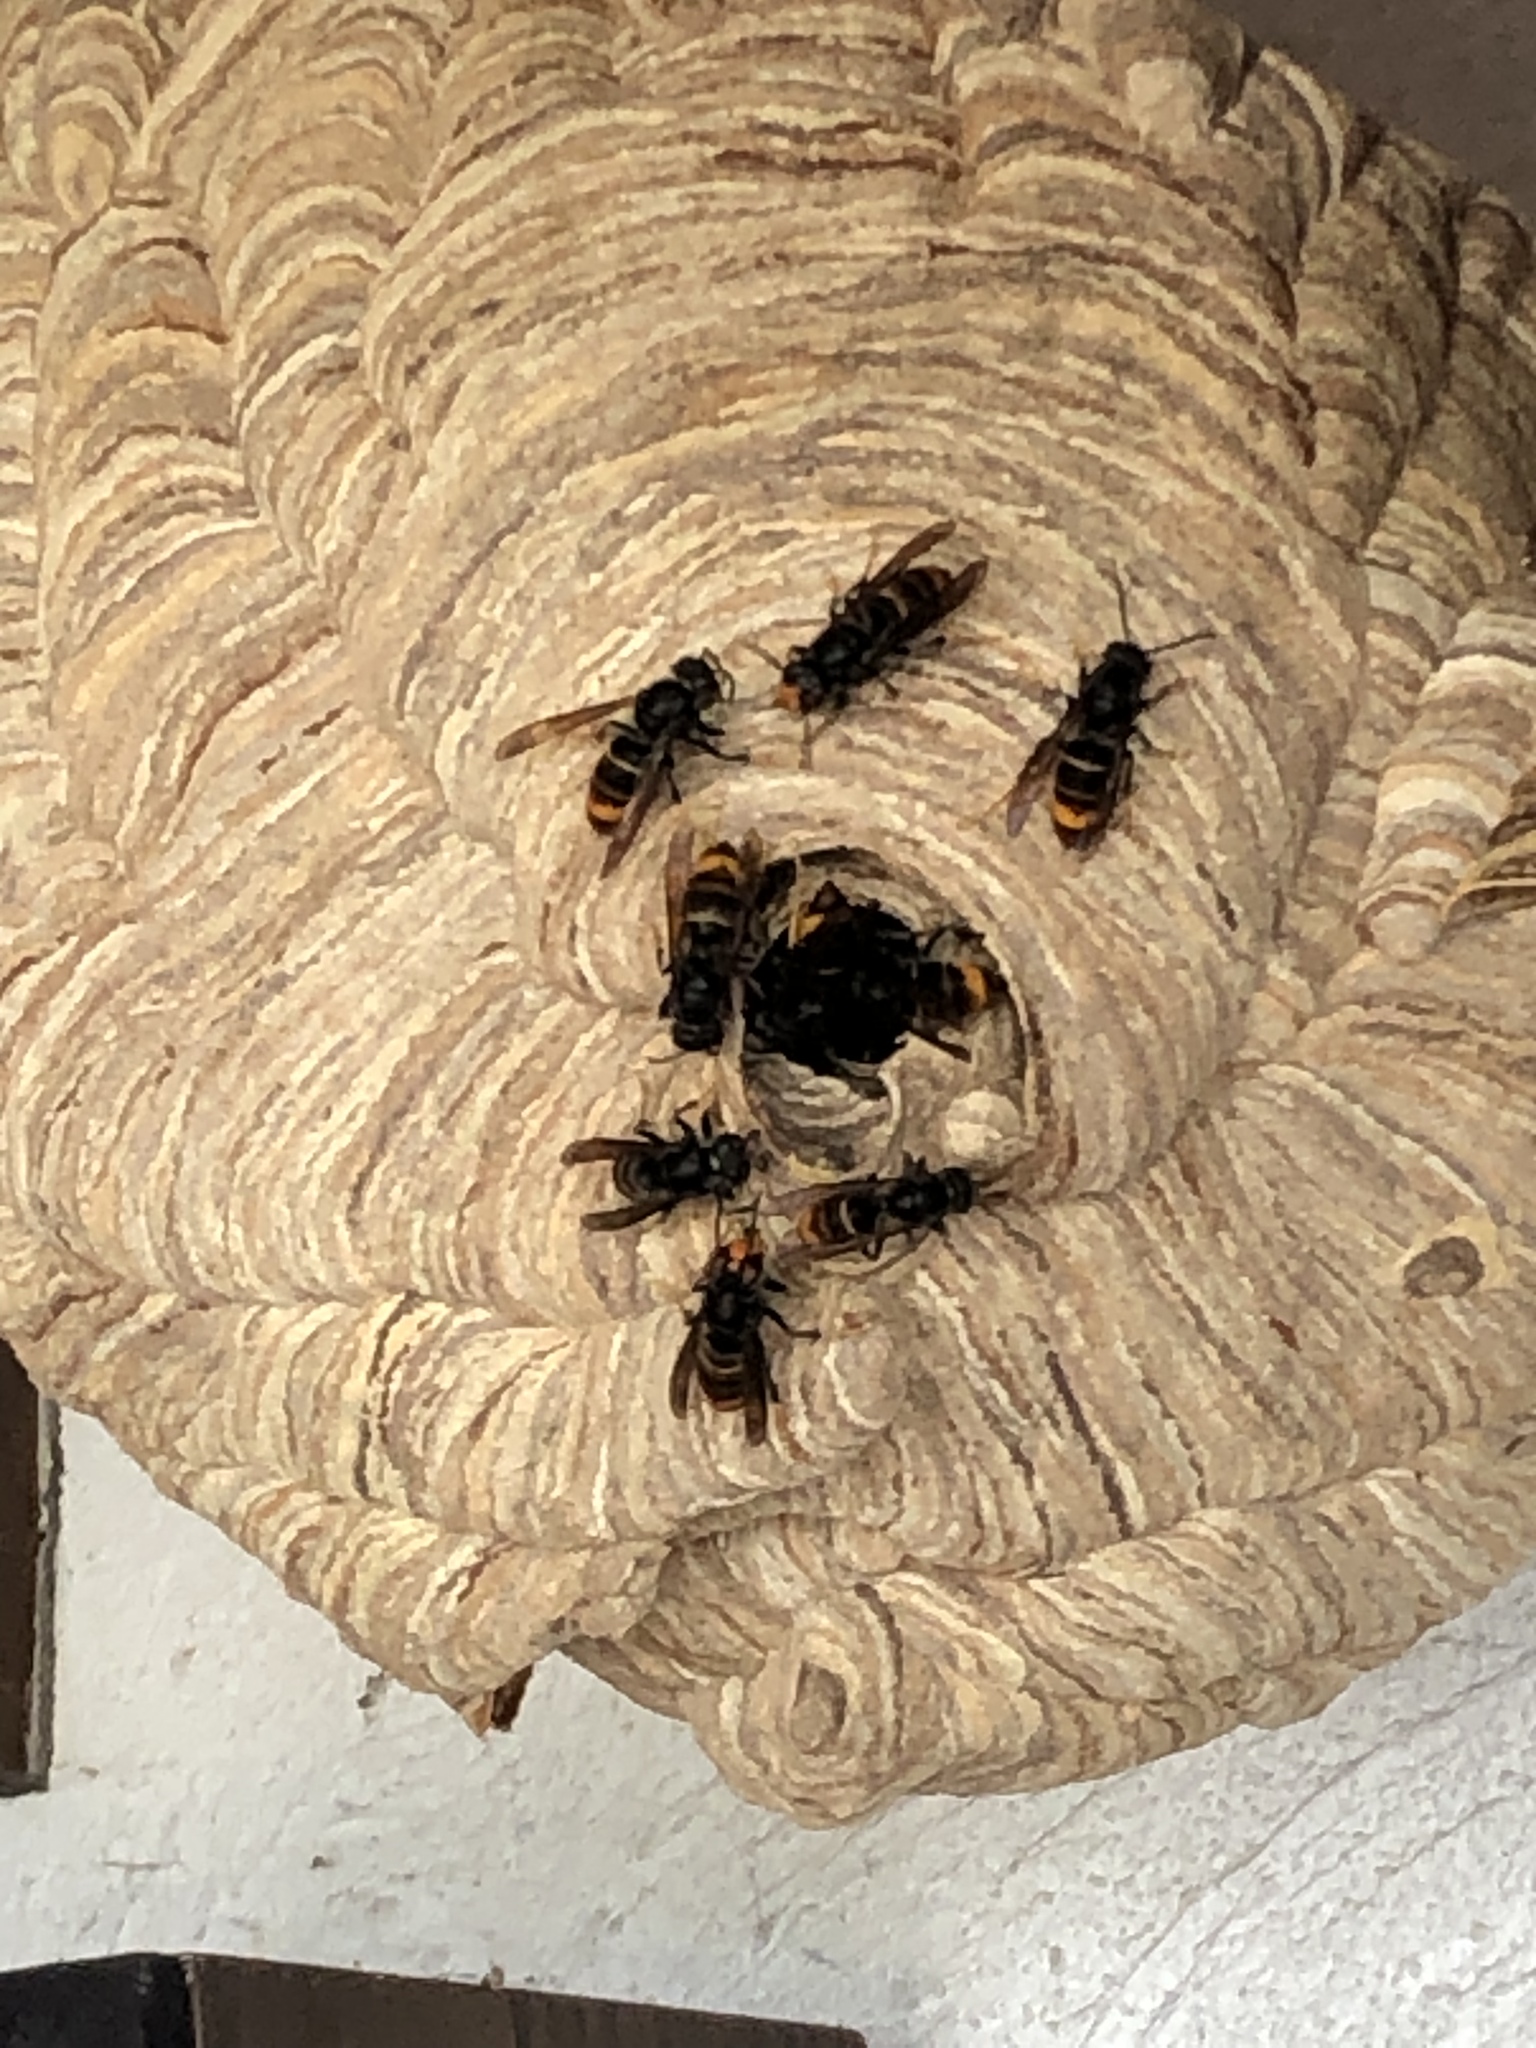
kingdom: Animalia
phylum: Arthropoda
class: Insecta
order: Hymenoptera
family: Vespidae
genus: Vespa
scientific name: Vespa velutina
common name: Asian hornet
